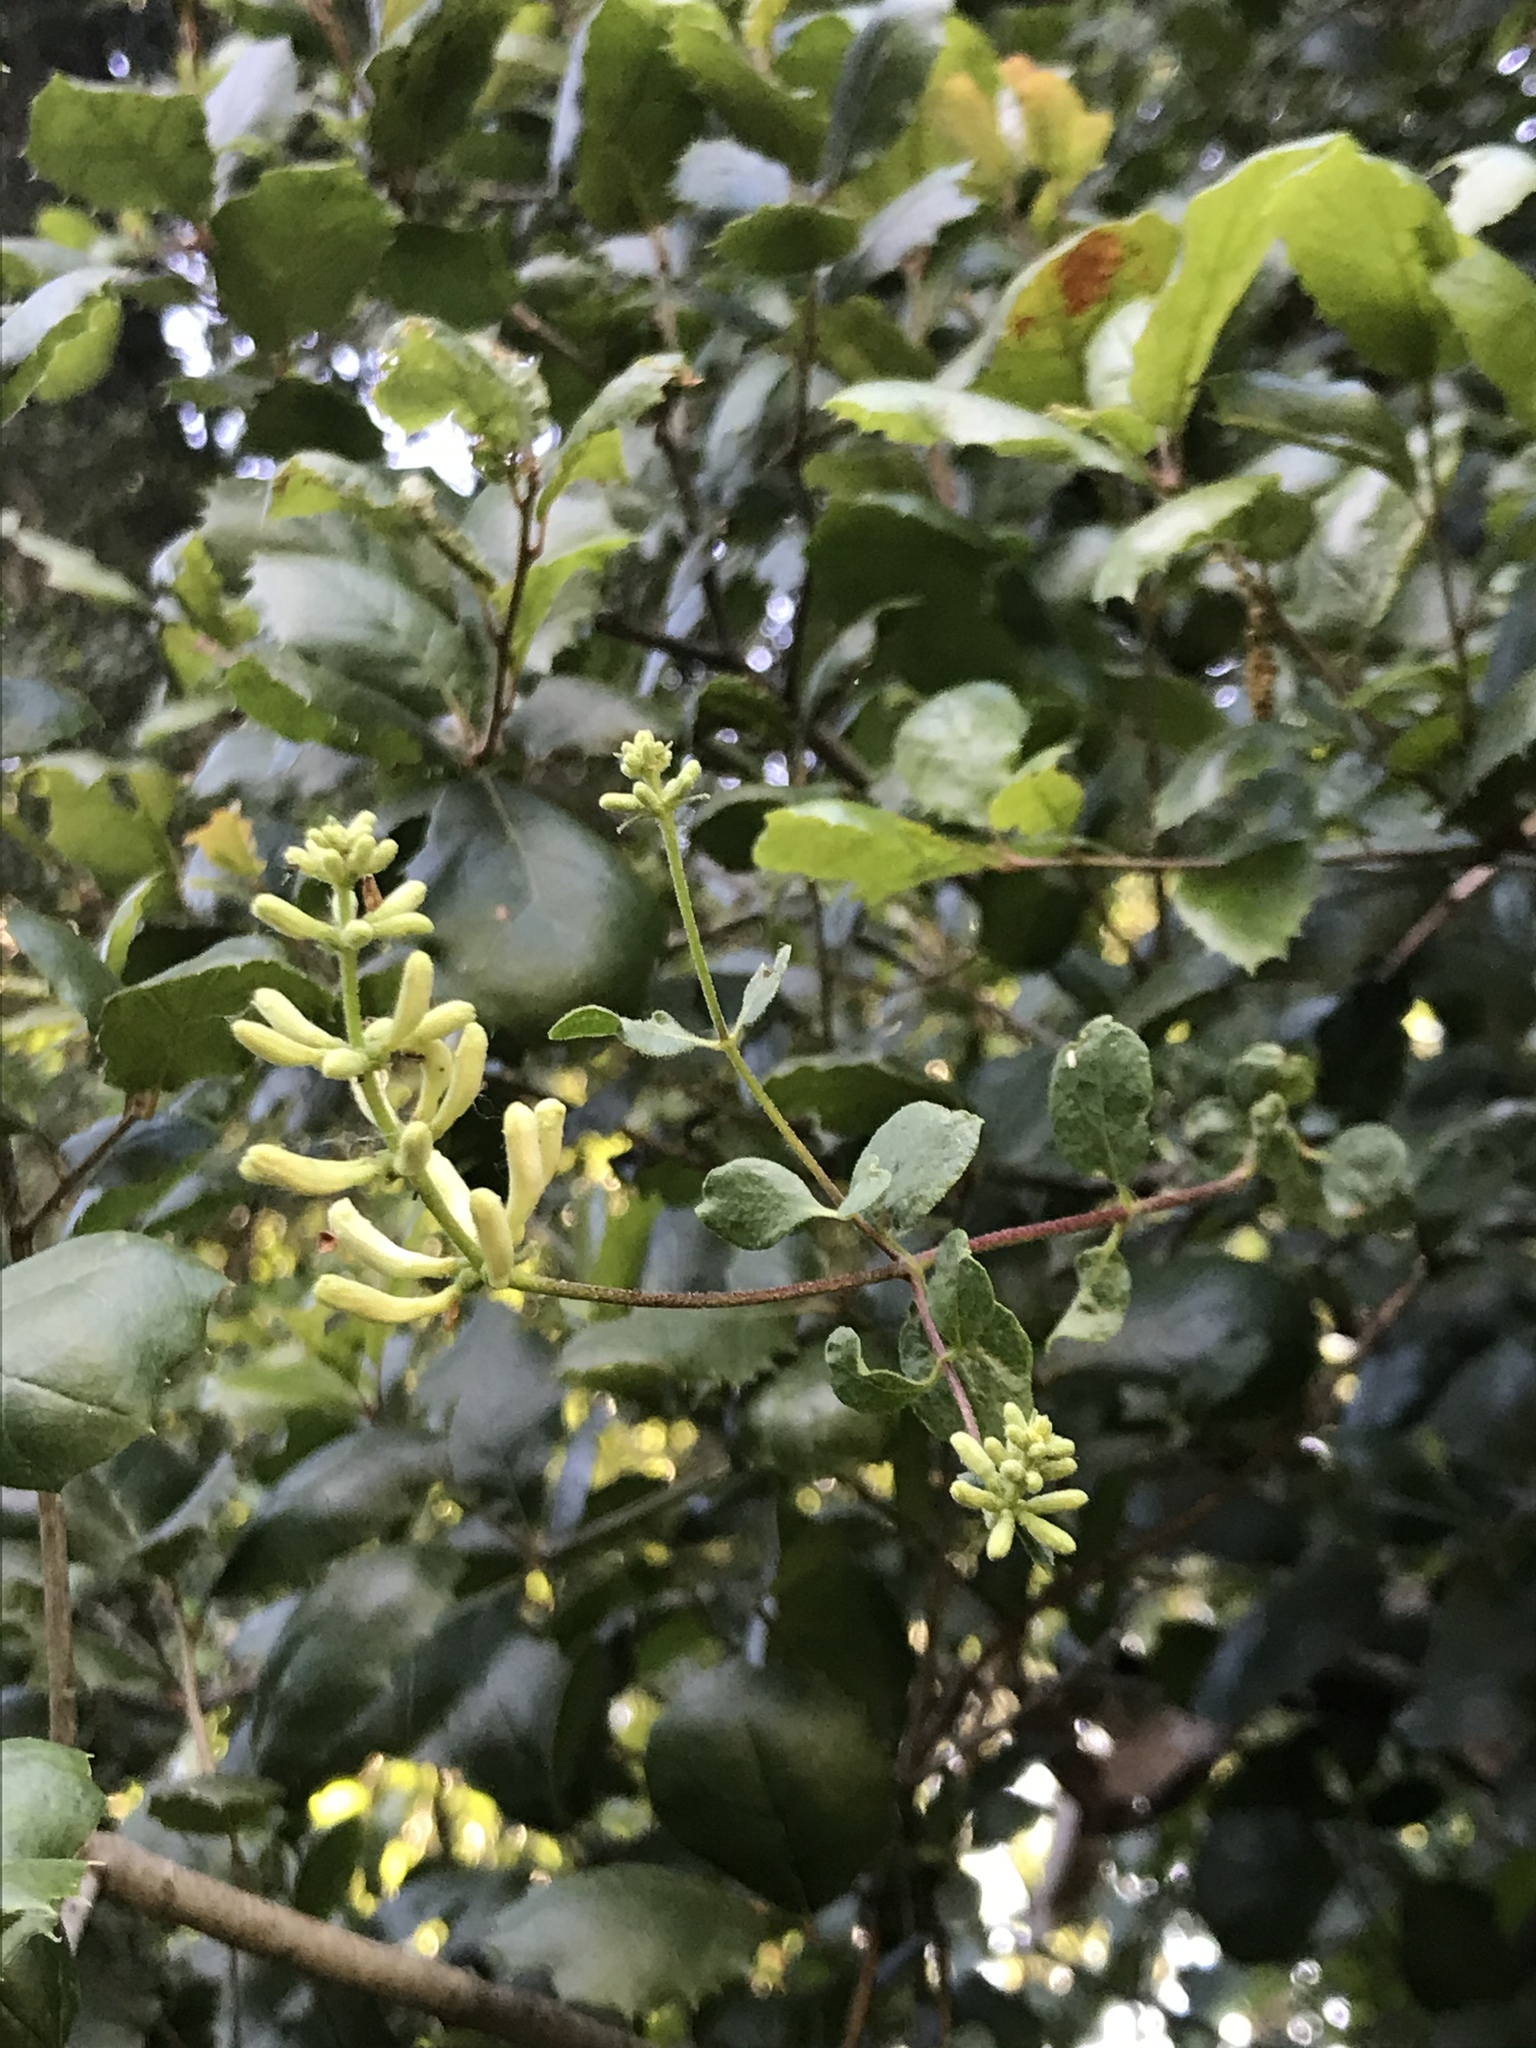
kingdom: Plantae
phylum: Tracheophyta
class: Magnoliopsida
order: Dipsacales
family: Caprifoliaceae
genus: Lonicera
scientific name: Lonicera subspicata
